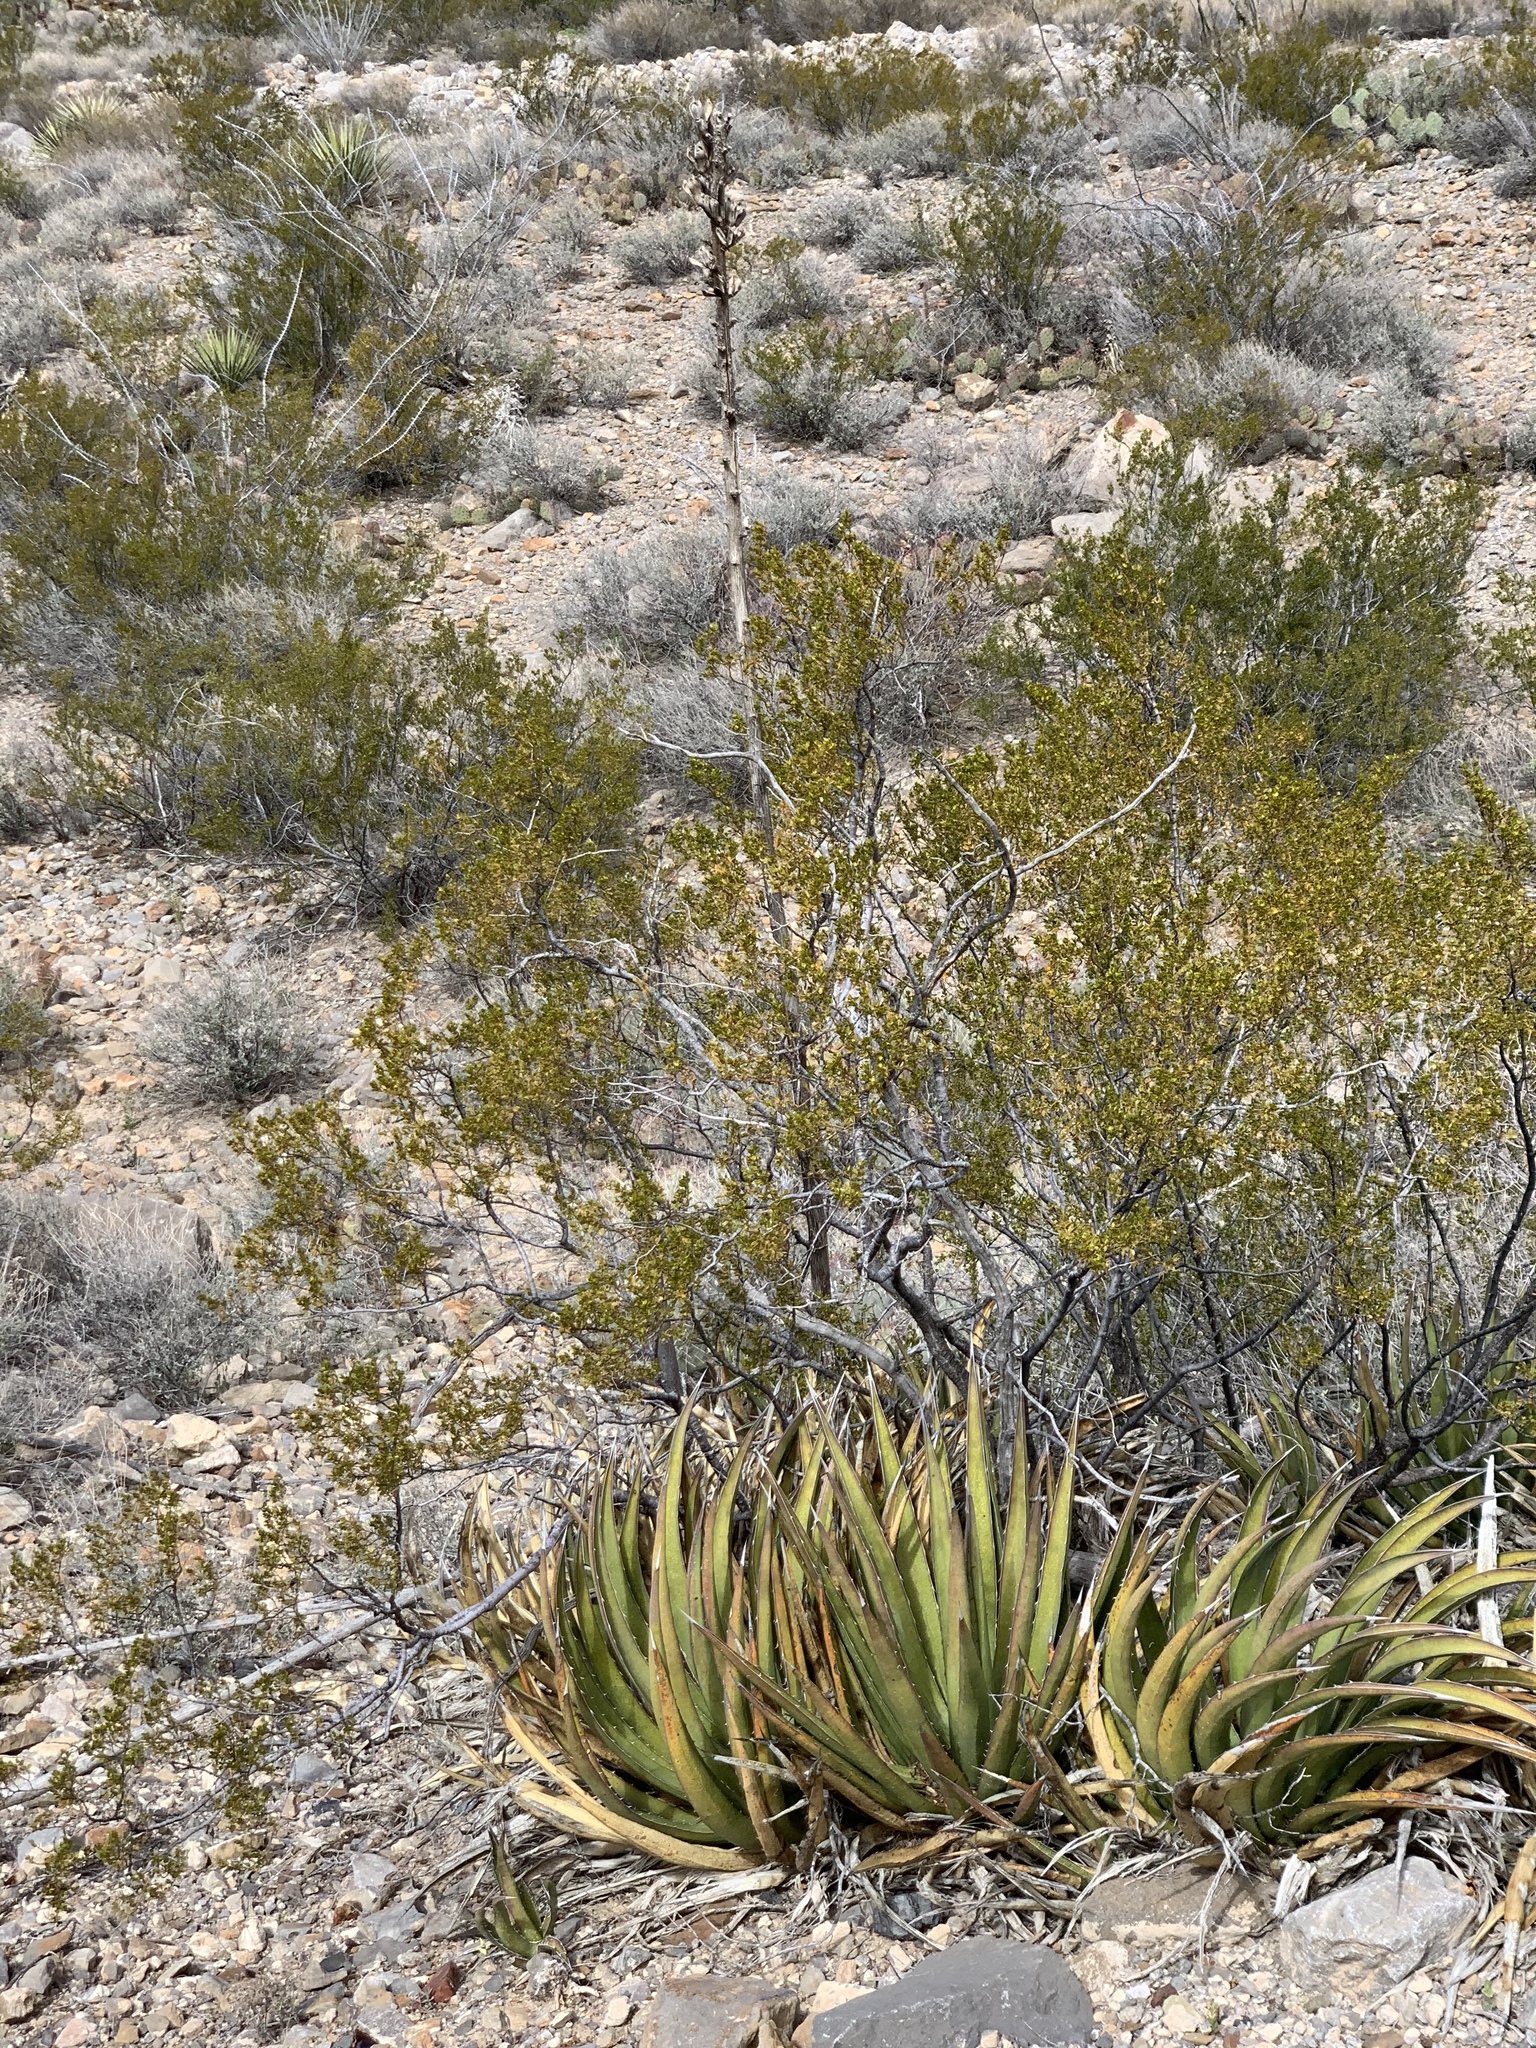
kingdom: Plantae
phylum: Tracheophyta
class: Liliopsida
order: Asparagales
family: Asparagaceae
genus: Agave
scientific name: Agave lechuguilla
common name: Lecheguilla agave
